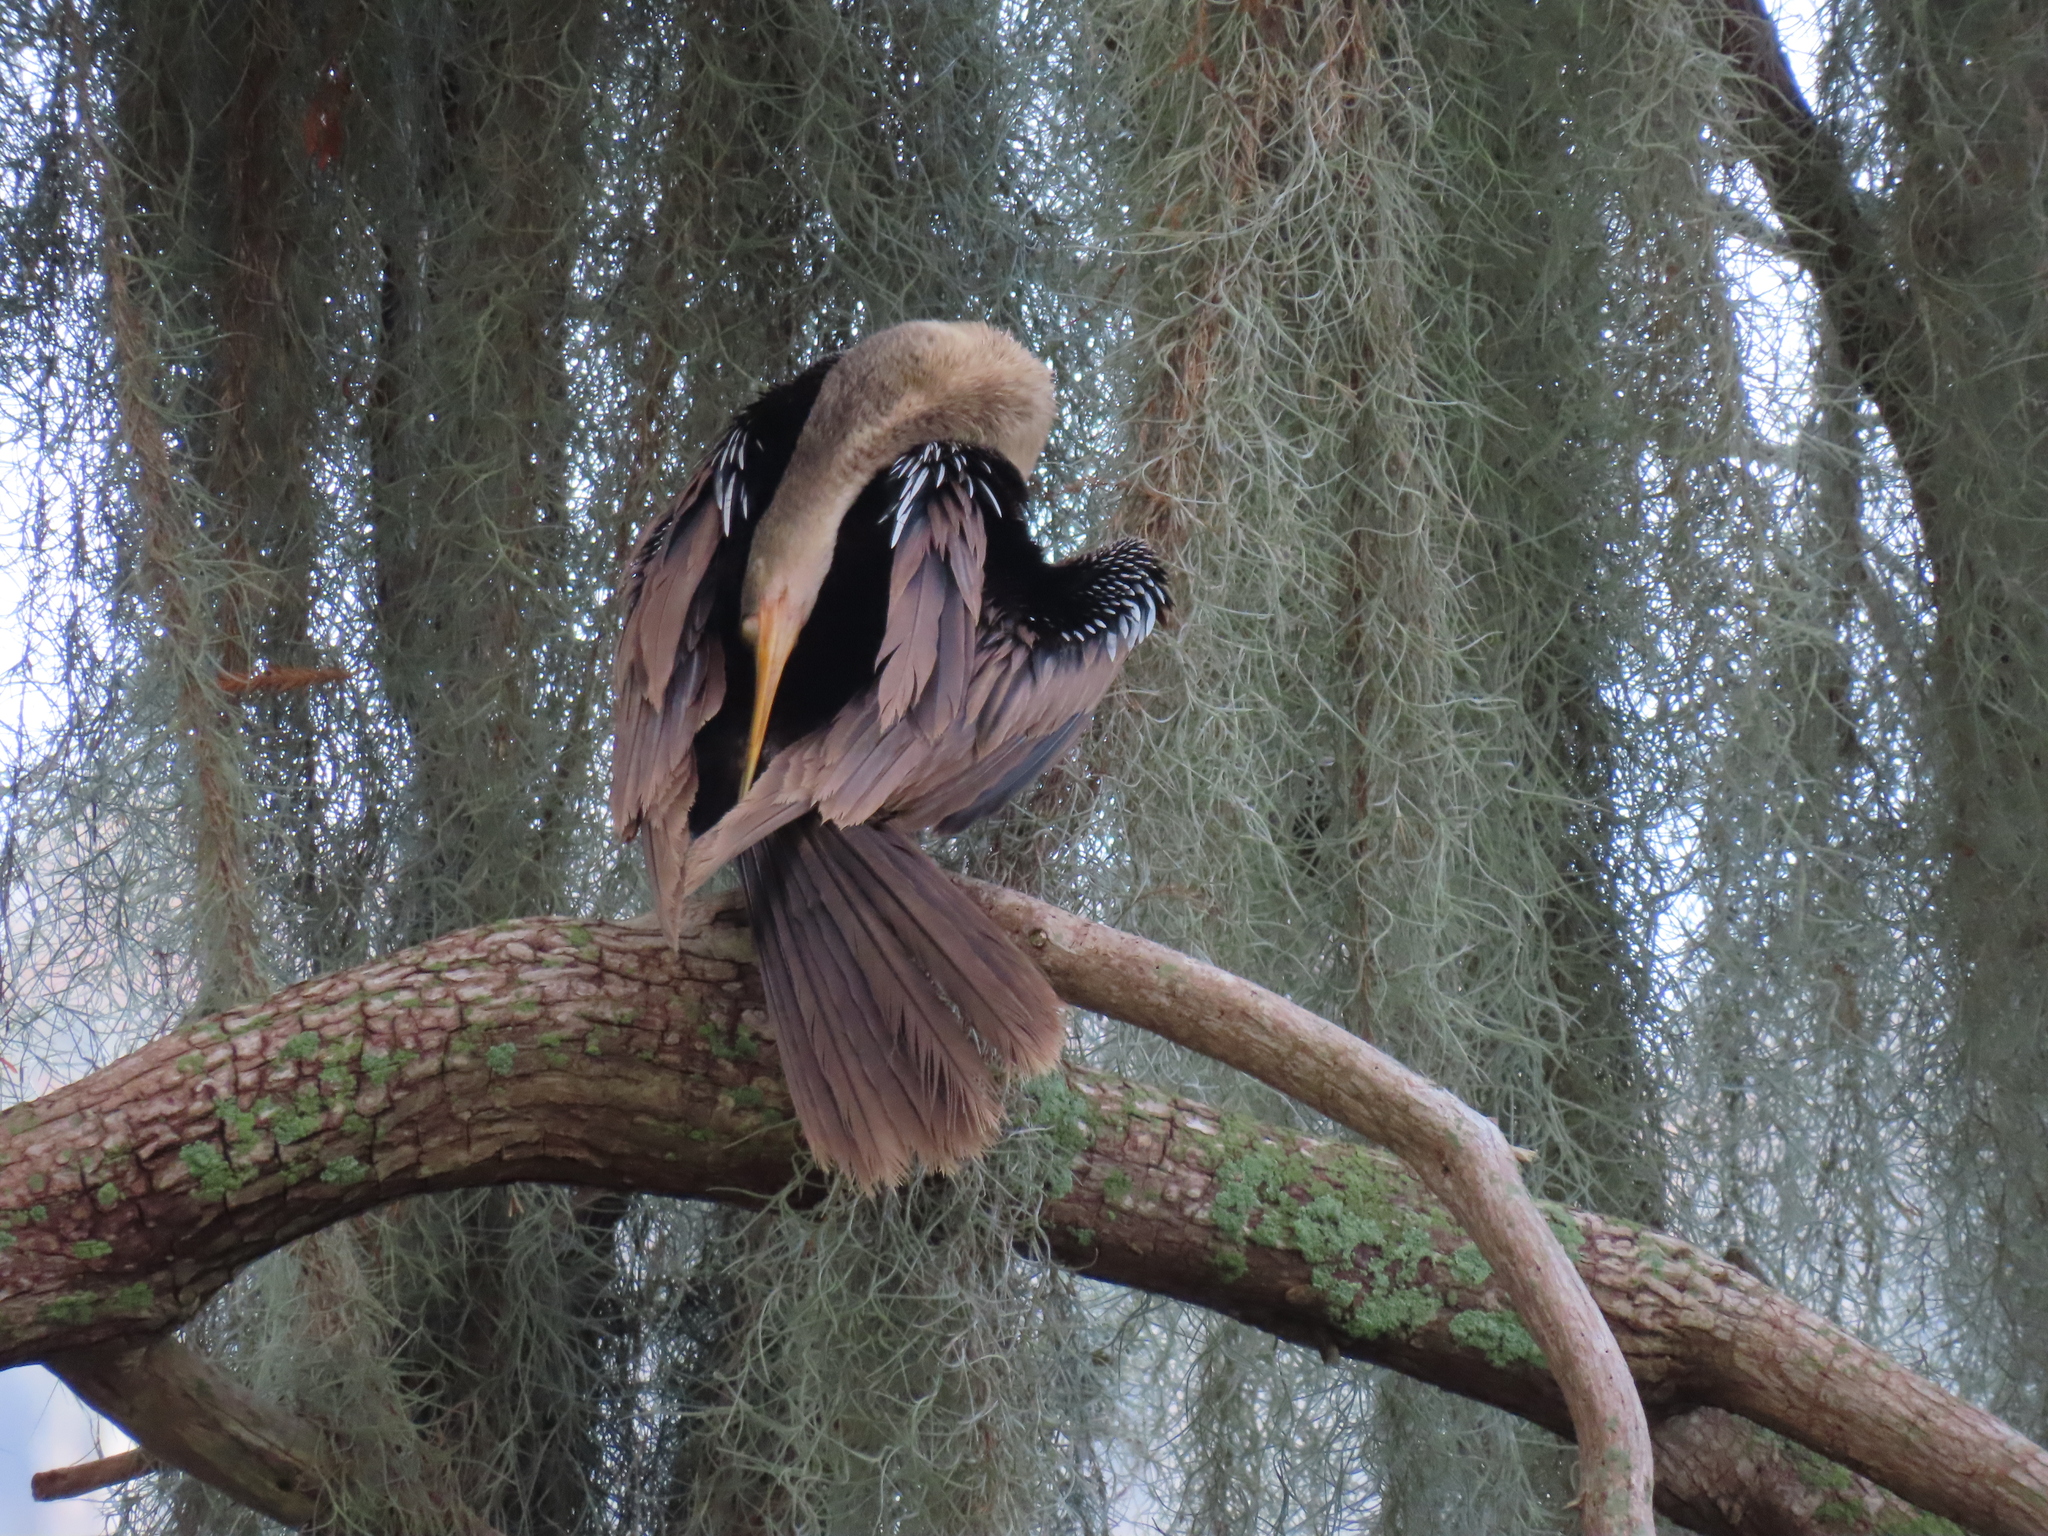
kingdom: Animalia
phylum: Chordata
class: Aves
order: Suliformes
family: Anhingidae
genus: Anhinga
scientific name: Anhinga anhinga
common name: Anhinga
